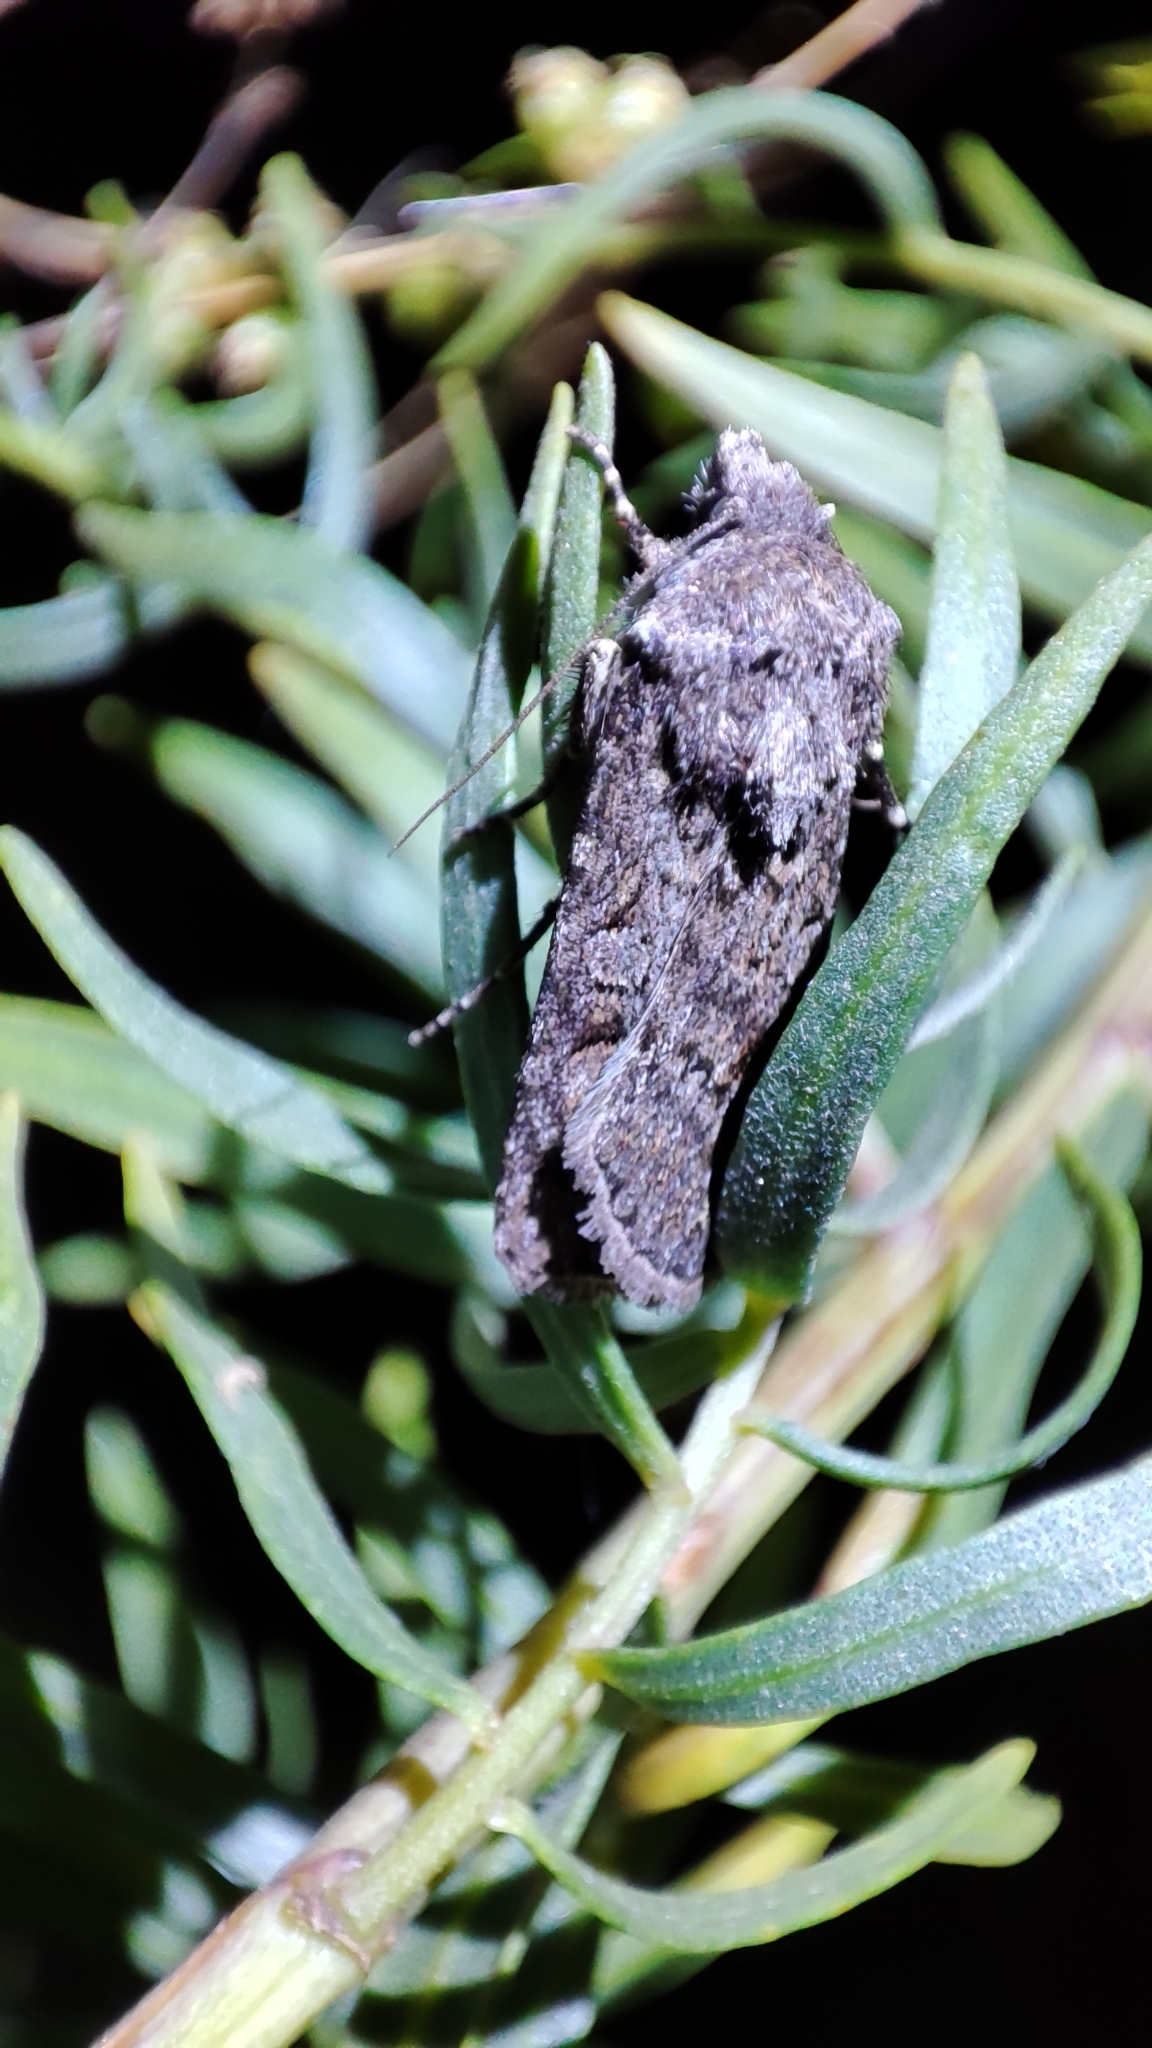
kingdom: Animalia
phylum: Arthropoda
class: Insecta
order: Lepidoptera
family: Noctuidae
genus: Euxoa
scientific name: Euxoa segnilis
